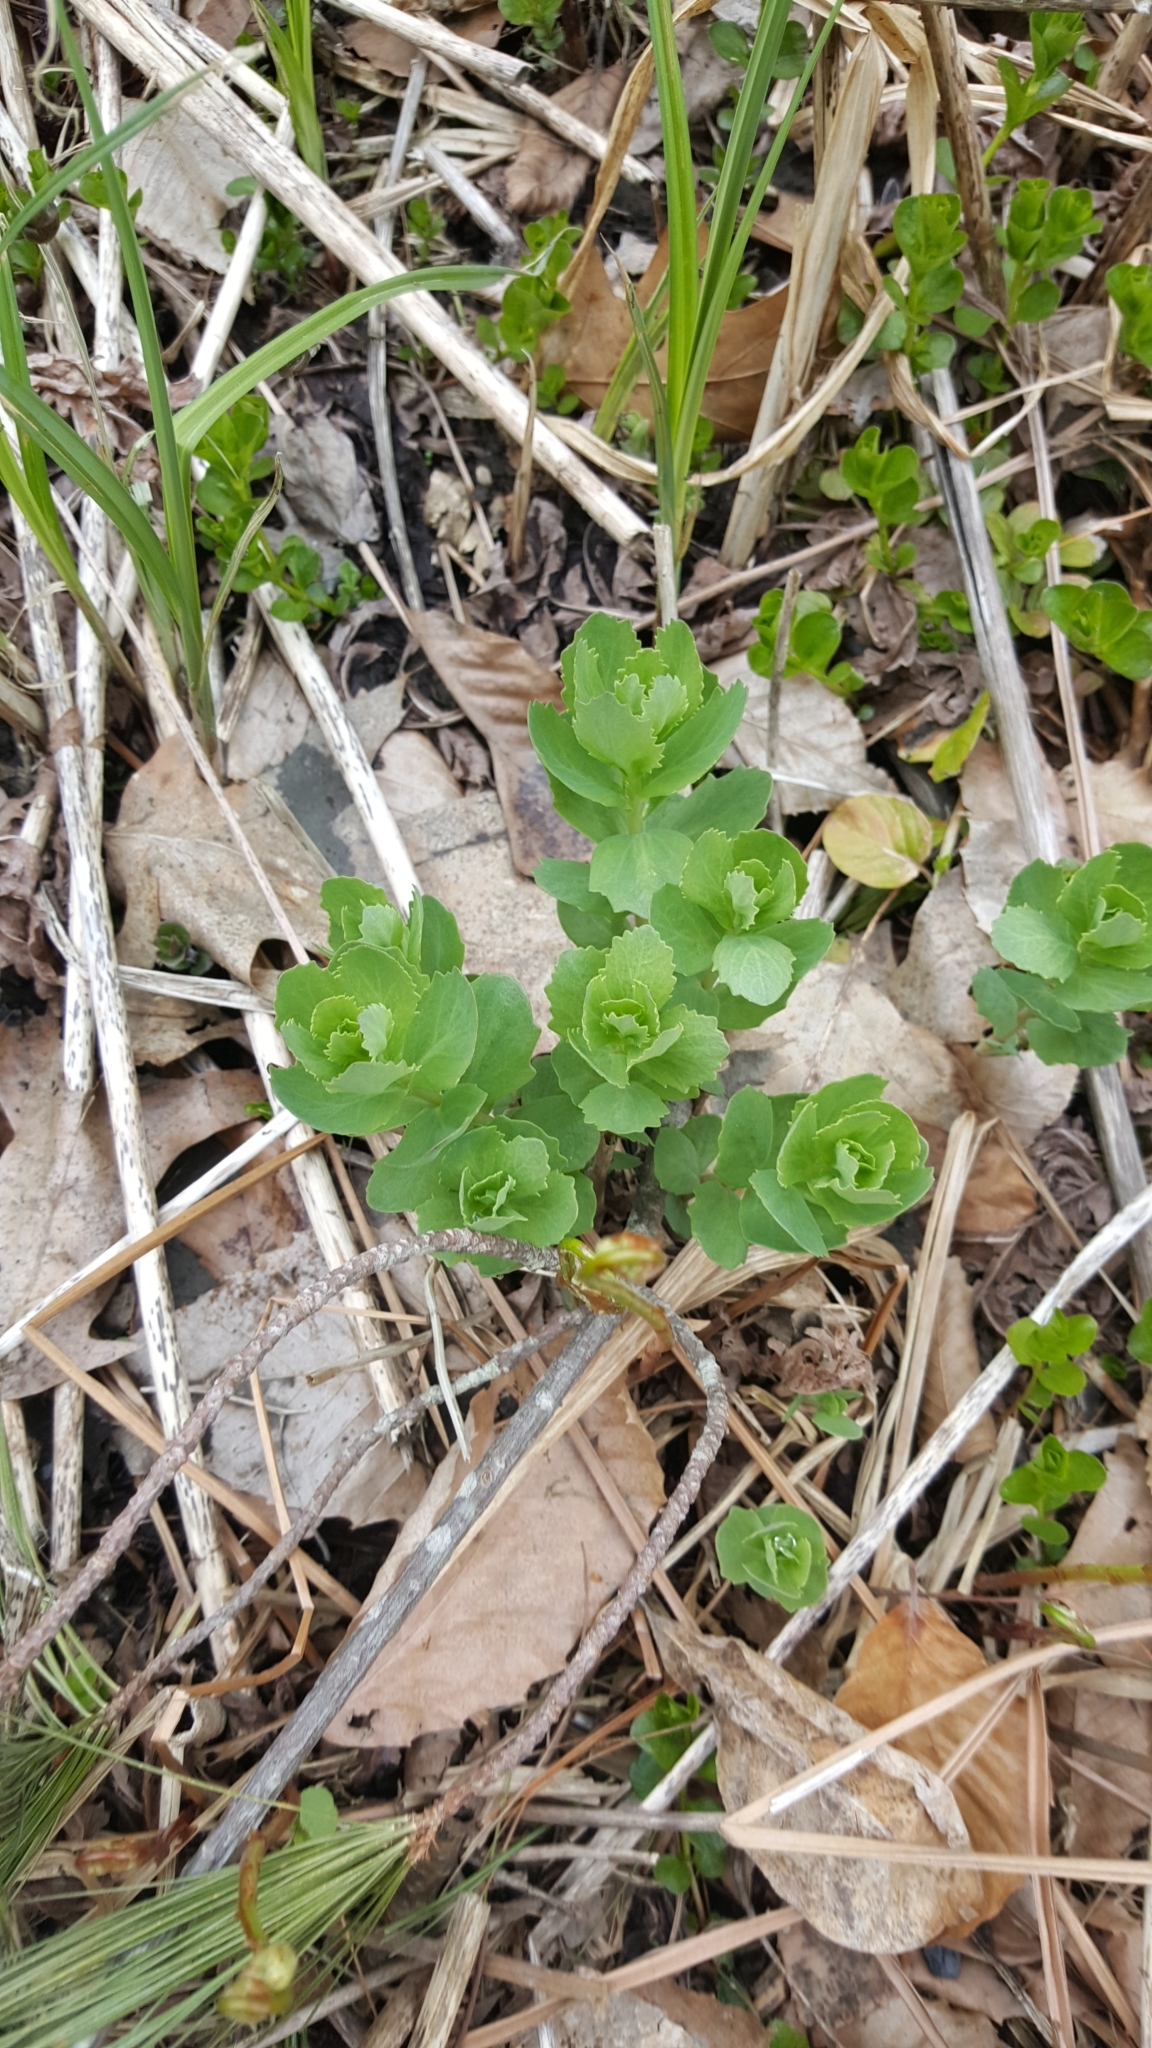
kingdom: Plantae
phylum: Tracheophyta
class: Magnoliopsida
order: Saxifragales
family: Crassulaceae
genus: Hylotelephium
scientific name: Hylotelephium telephium
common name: Live-forever
